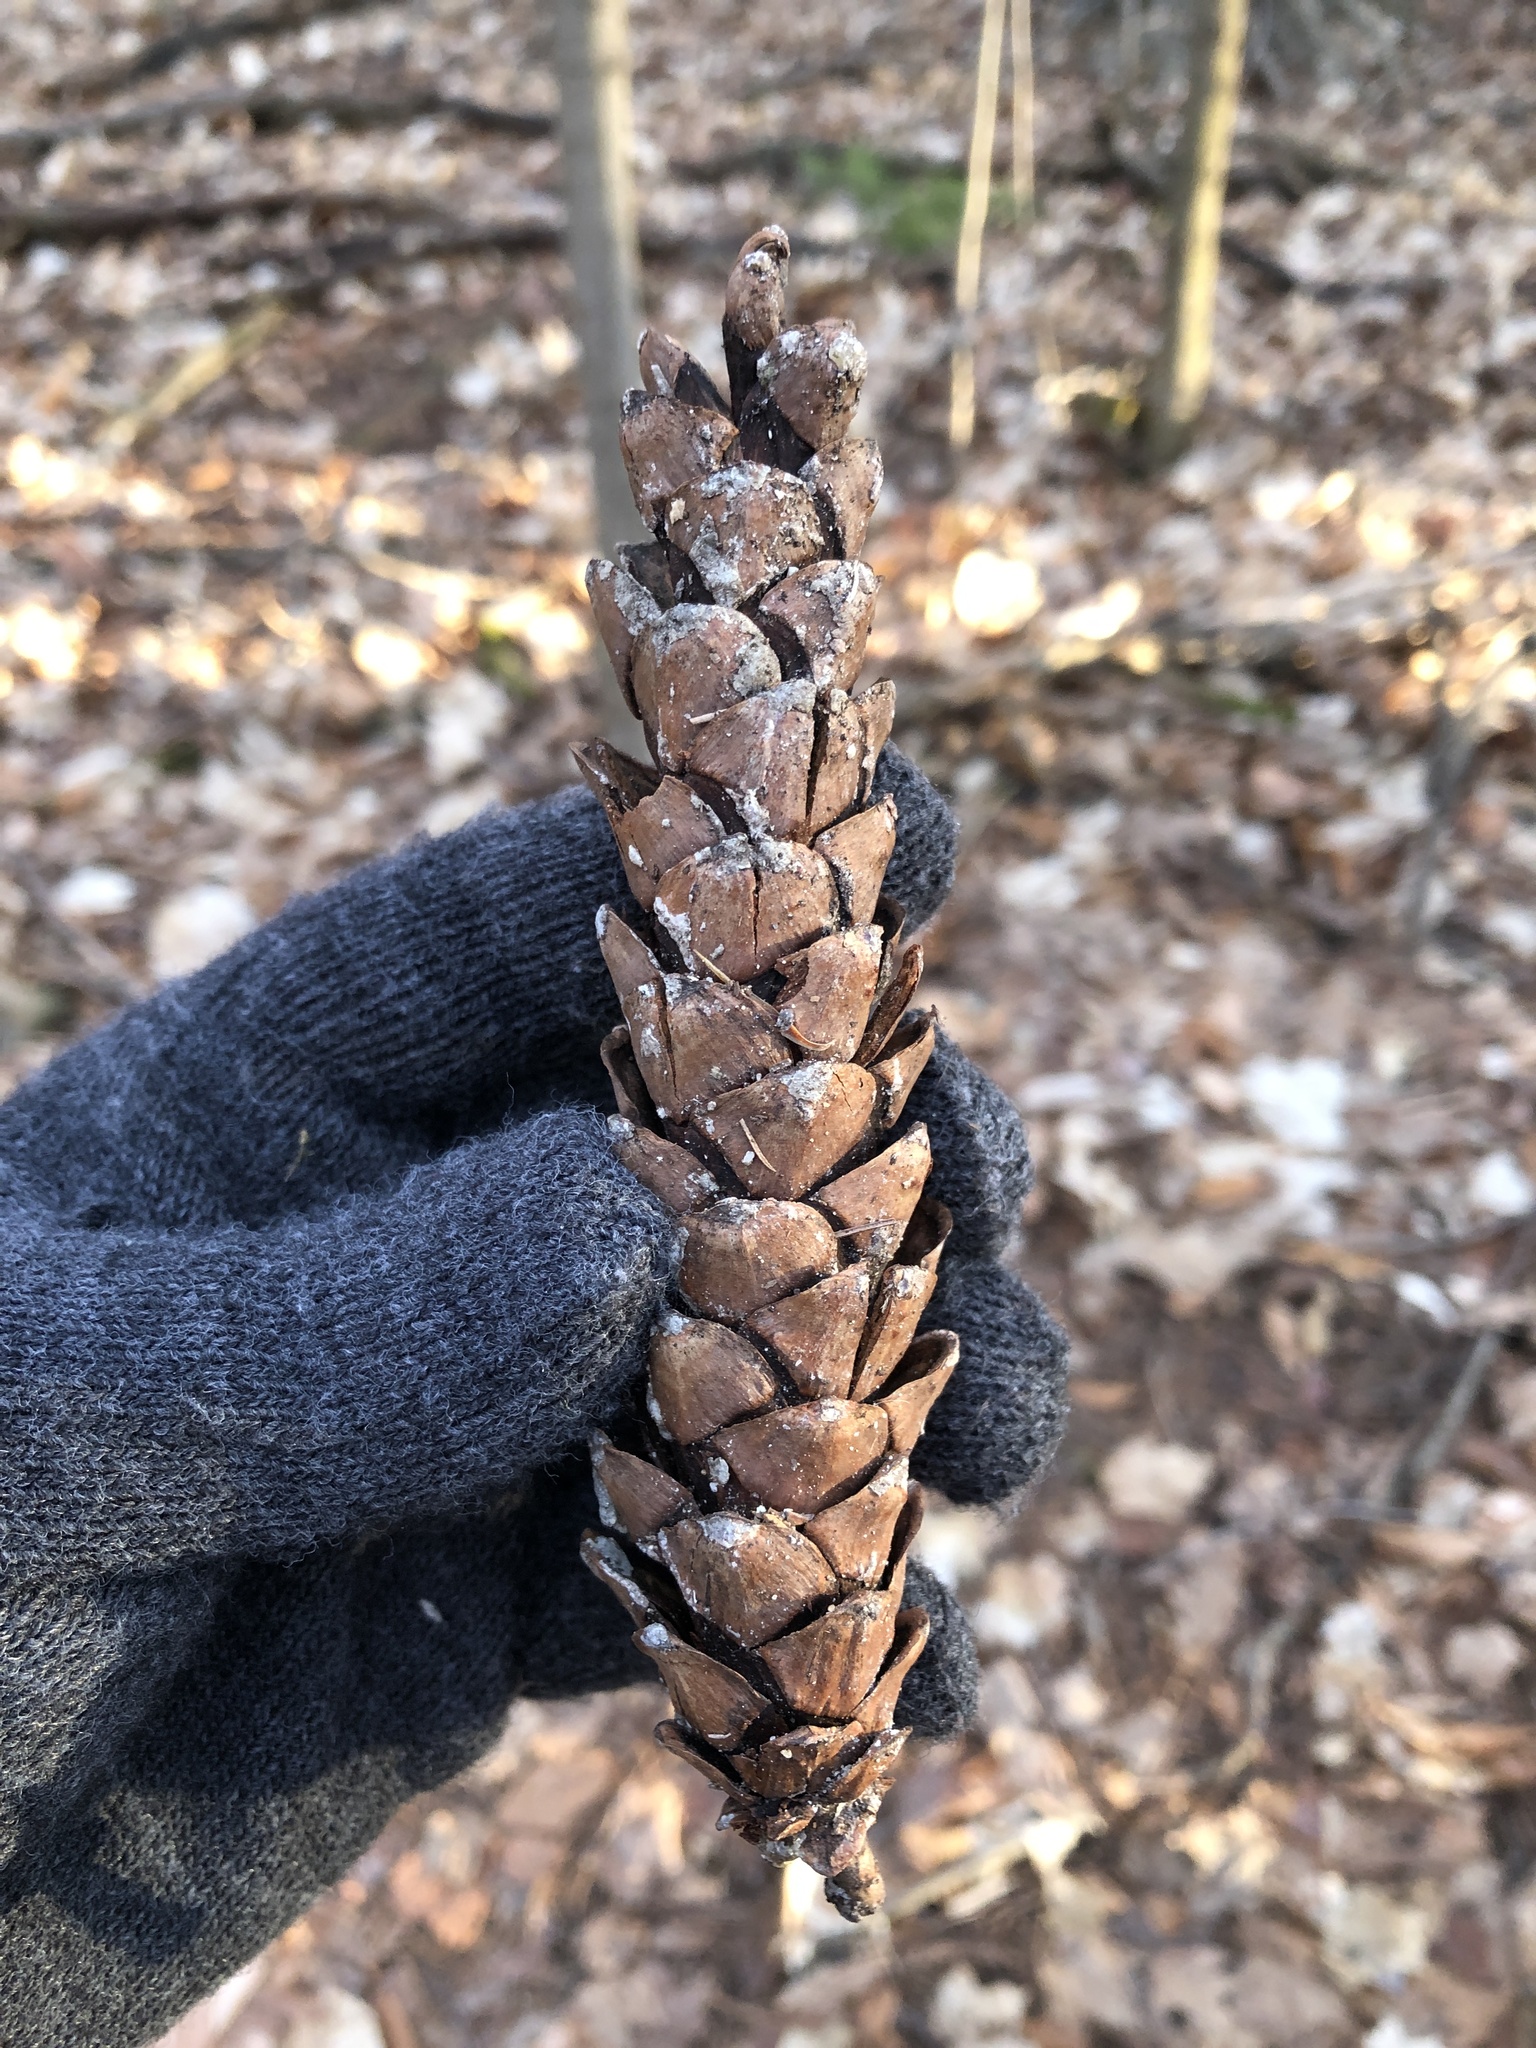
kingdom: Plantae
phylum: Tracheophyta
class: Pinopsida
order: Pinales
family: Pinaceae
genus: Pinus
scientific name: Pinus strobus
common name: Weymouth pine
